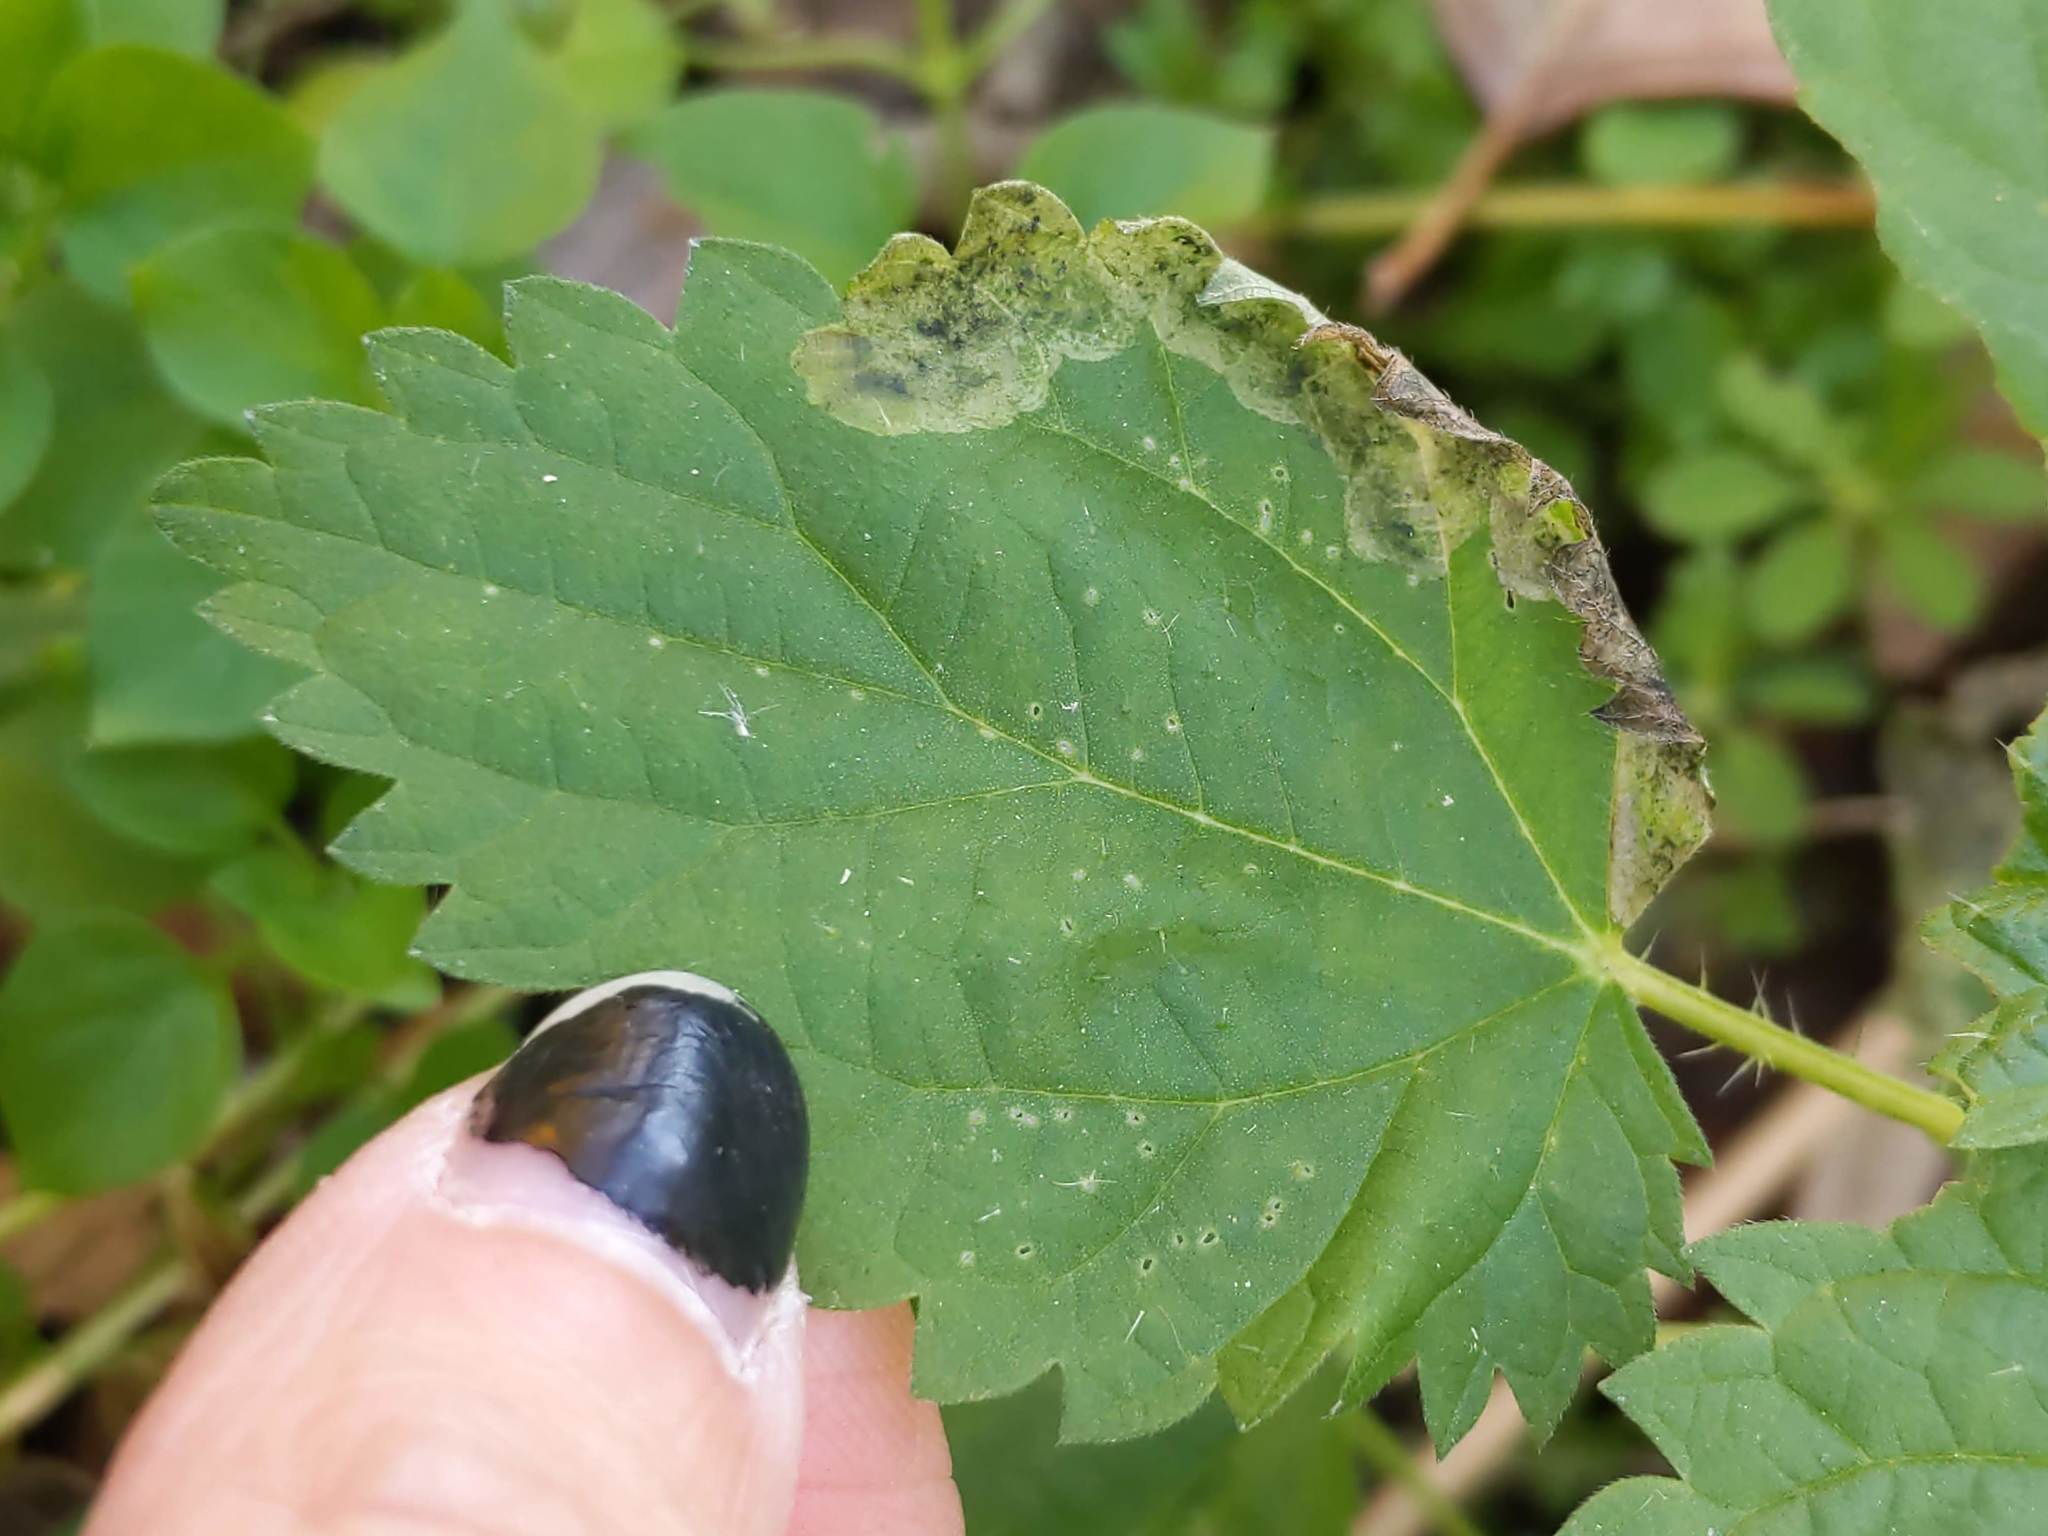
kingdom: Animalia
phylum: Arthropoda
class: Insecta
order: Diptera
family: Agromyzidae
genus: Agromyza
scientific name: Agromyza pseudoreptans
